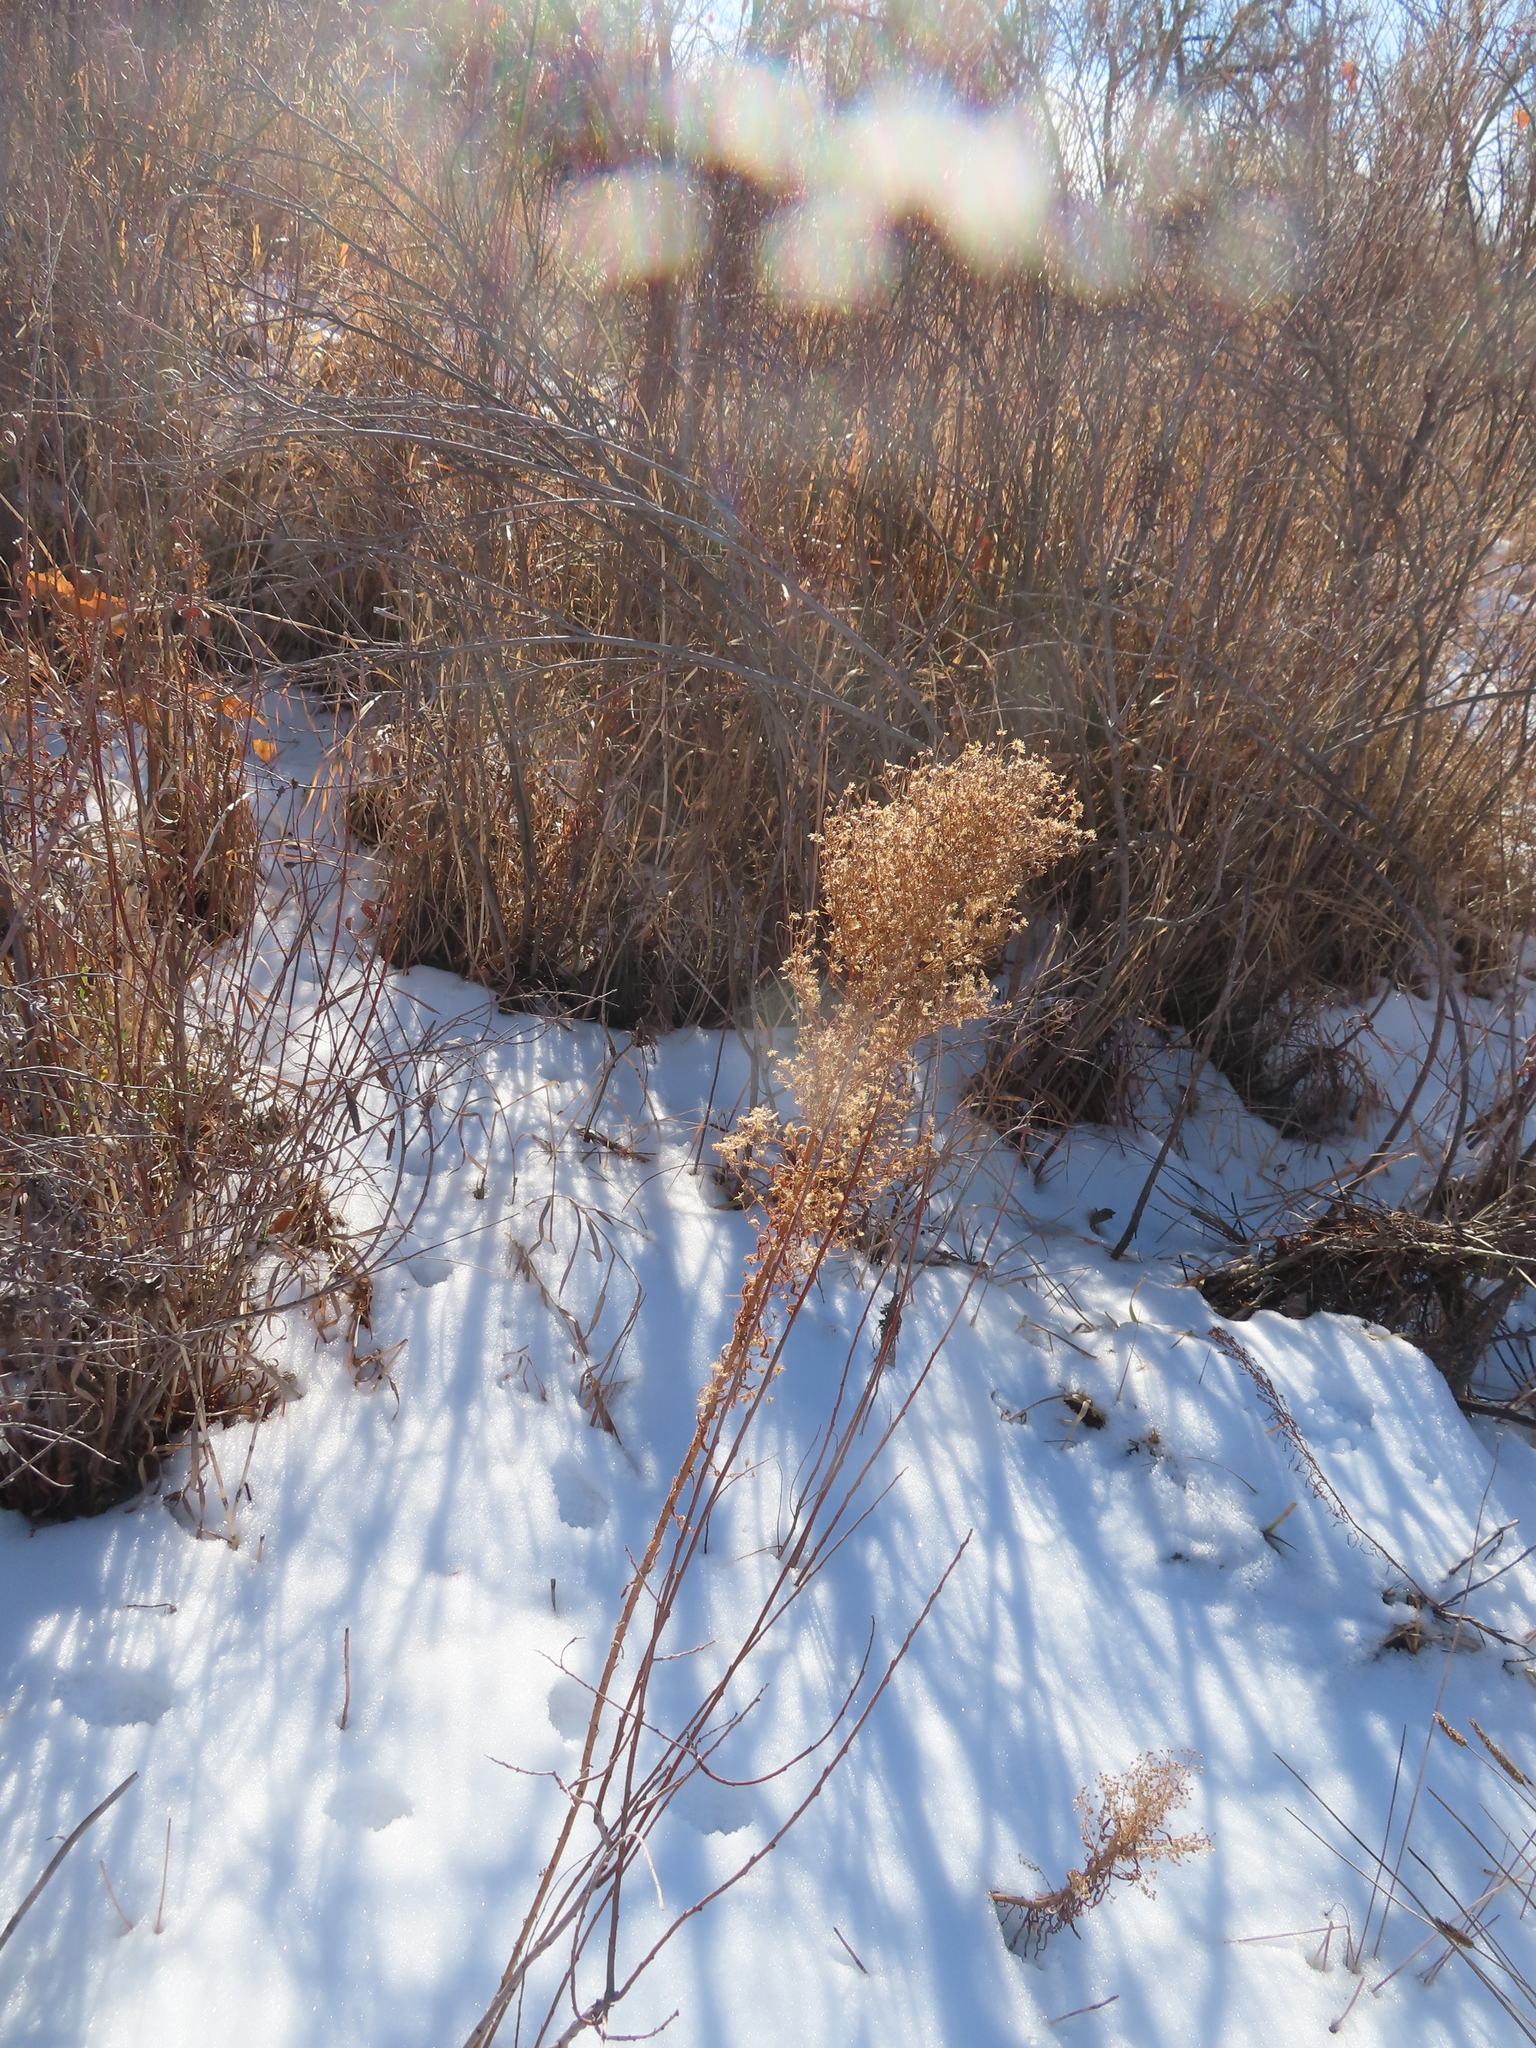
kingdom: Plantae
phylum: Tracheophyta
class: Magnoliopsida
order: Asterales
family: Asteraceae
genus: Erigeron
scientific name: Erigeron canadensis
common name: Canadian fleabane
